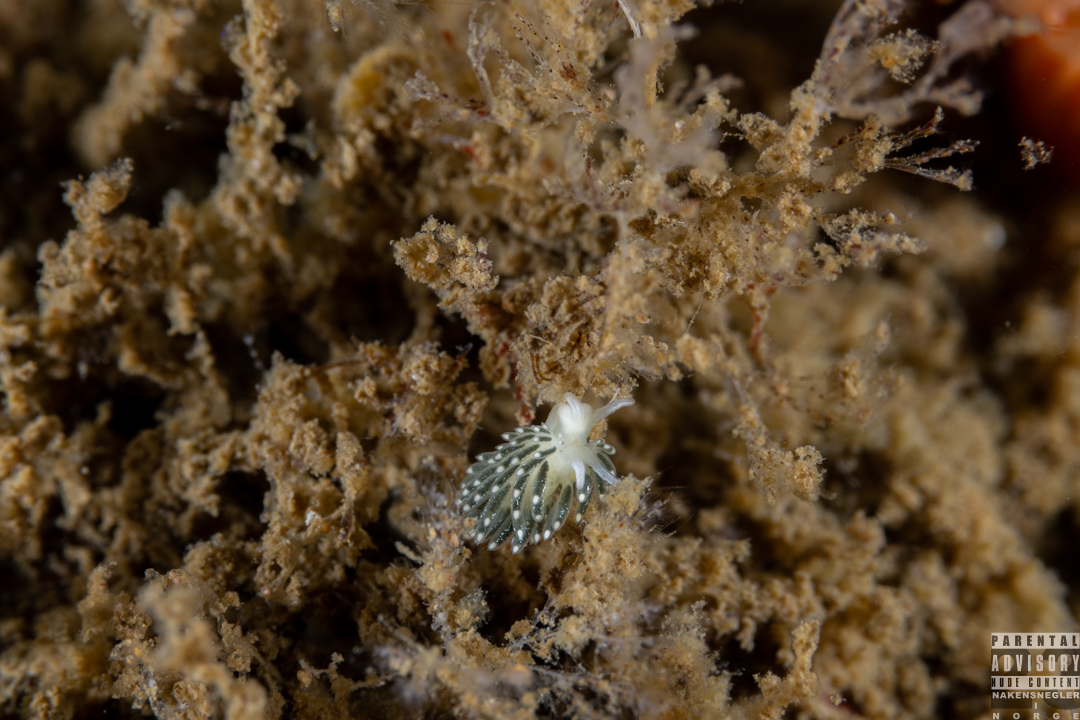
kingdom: Animalia
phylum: Mollusca
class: Gastropoda
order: Nudibranchia
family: Trinchesiidae
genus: Diaphoreolis
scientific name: Diaphoreolis viridis
